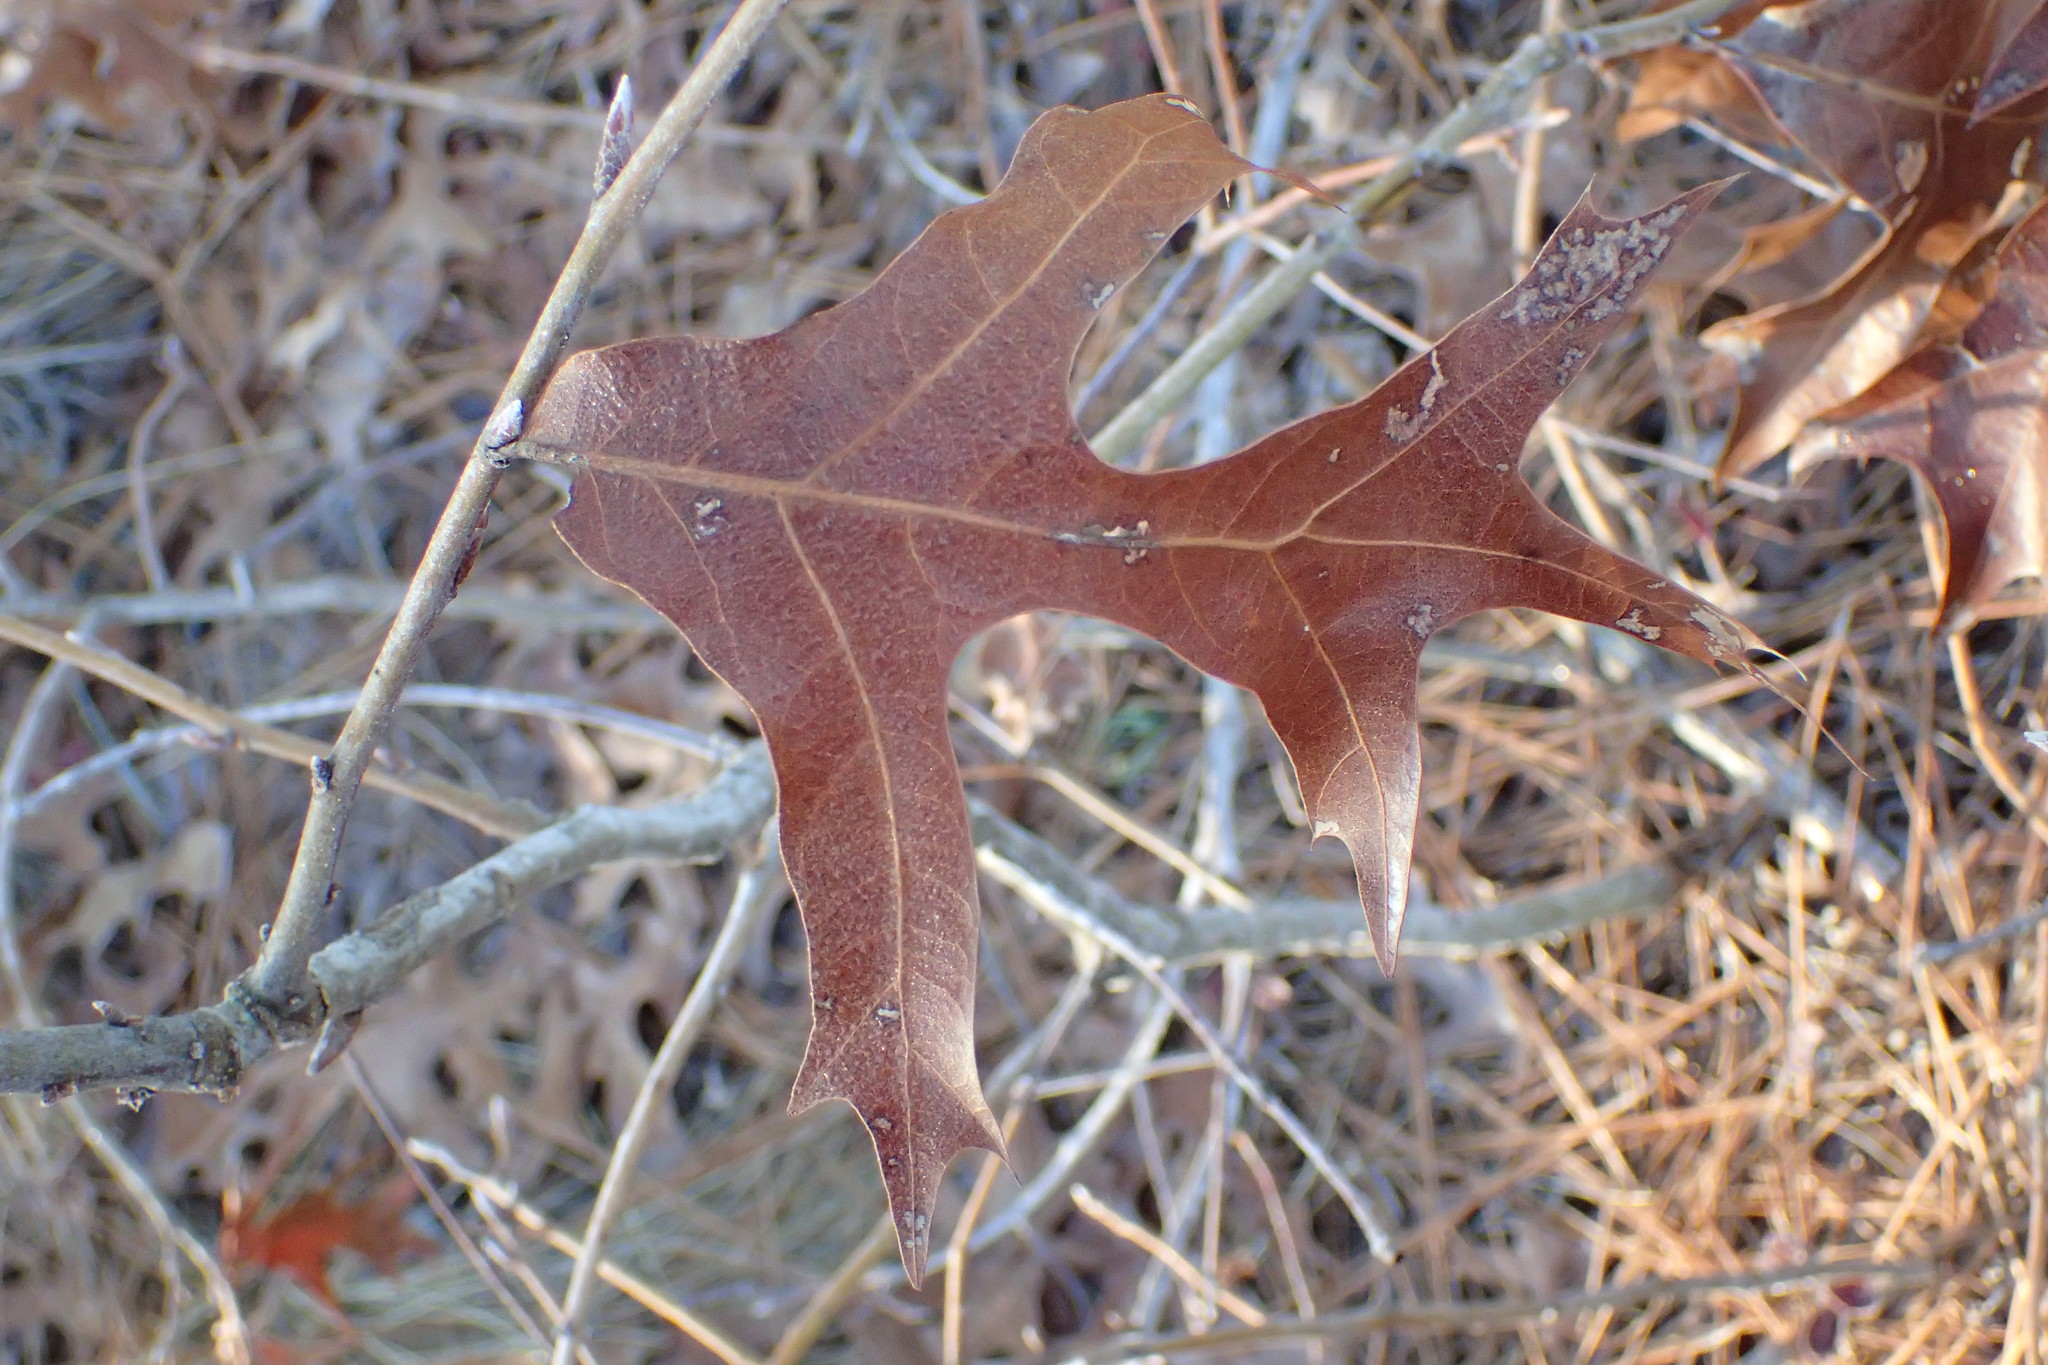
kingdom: Plantae
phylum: Tracheophyta
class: Magnoliopsida
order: Fagales
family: Fagaceae
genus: Quercus
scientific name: Quercus laevis
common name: Turkey oak
